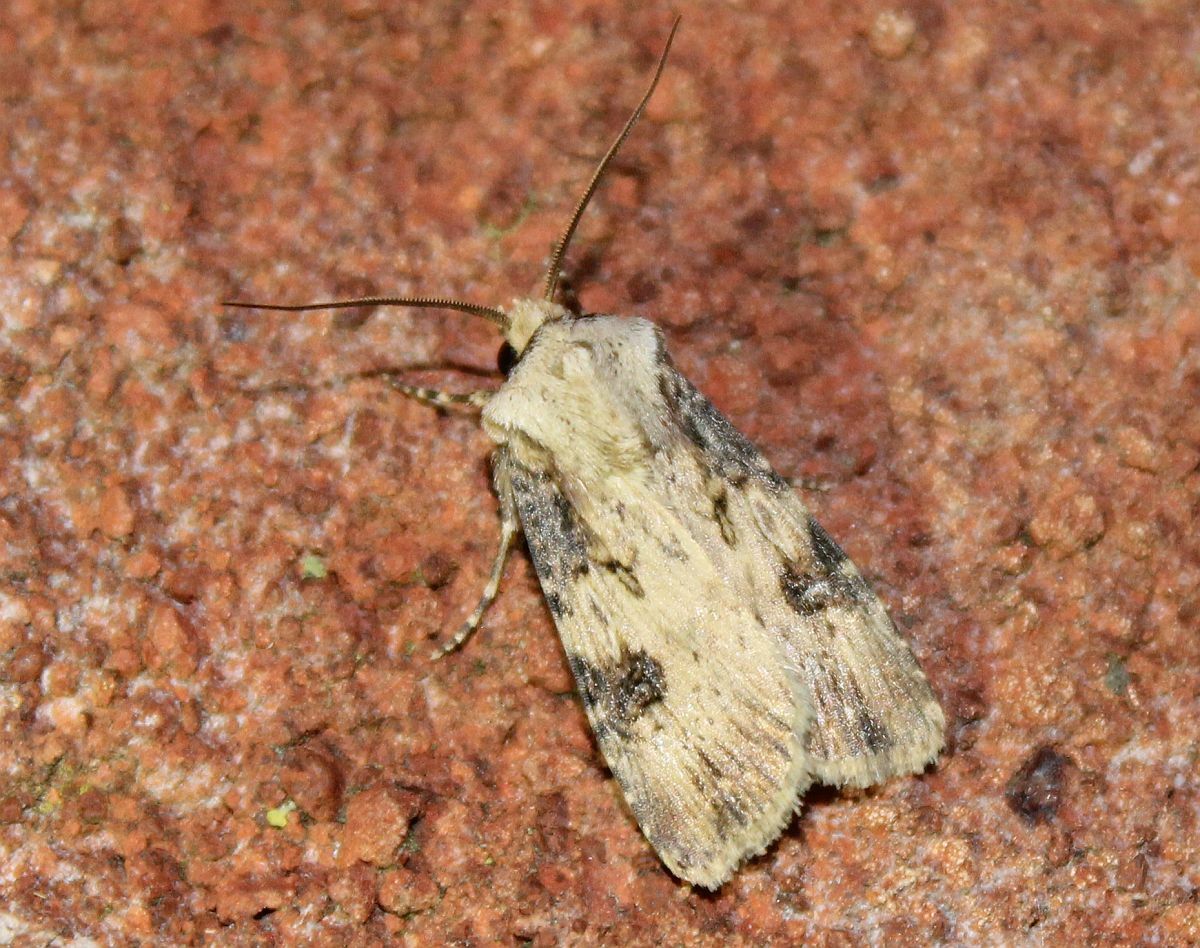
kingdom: Animalia
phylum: Arthropoda
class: Insecta
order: Lepidoptera
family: Noctuidae
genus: Agrotis
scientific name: Agrotis puta
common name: Shuttle-shaped dart
